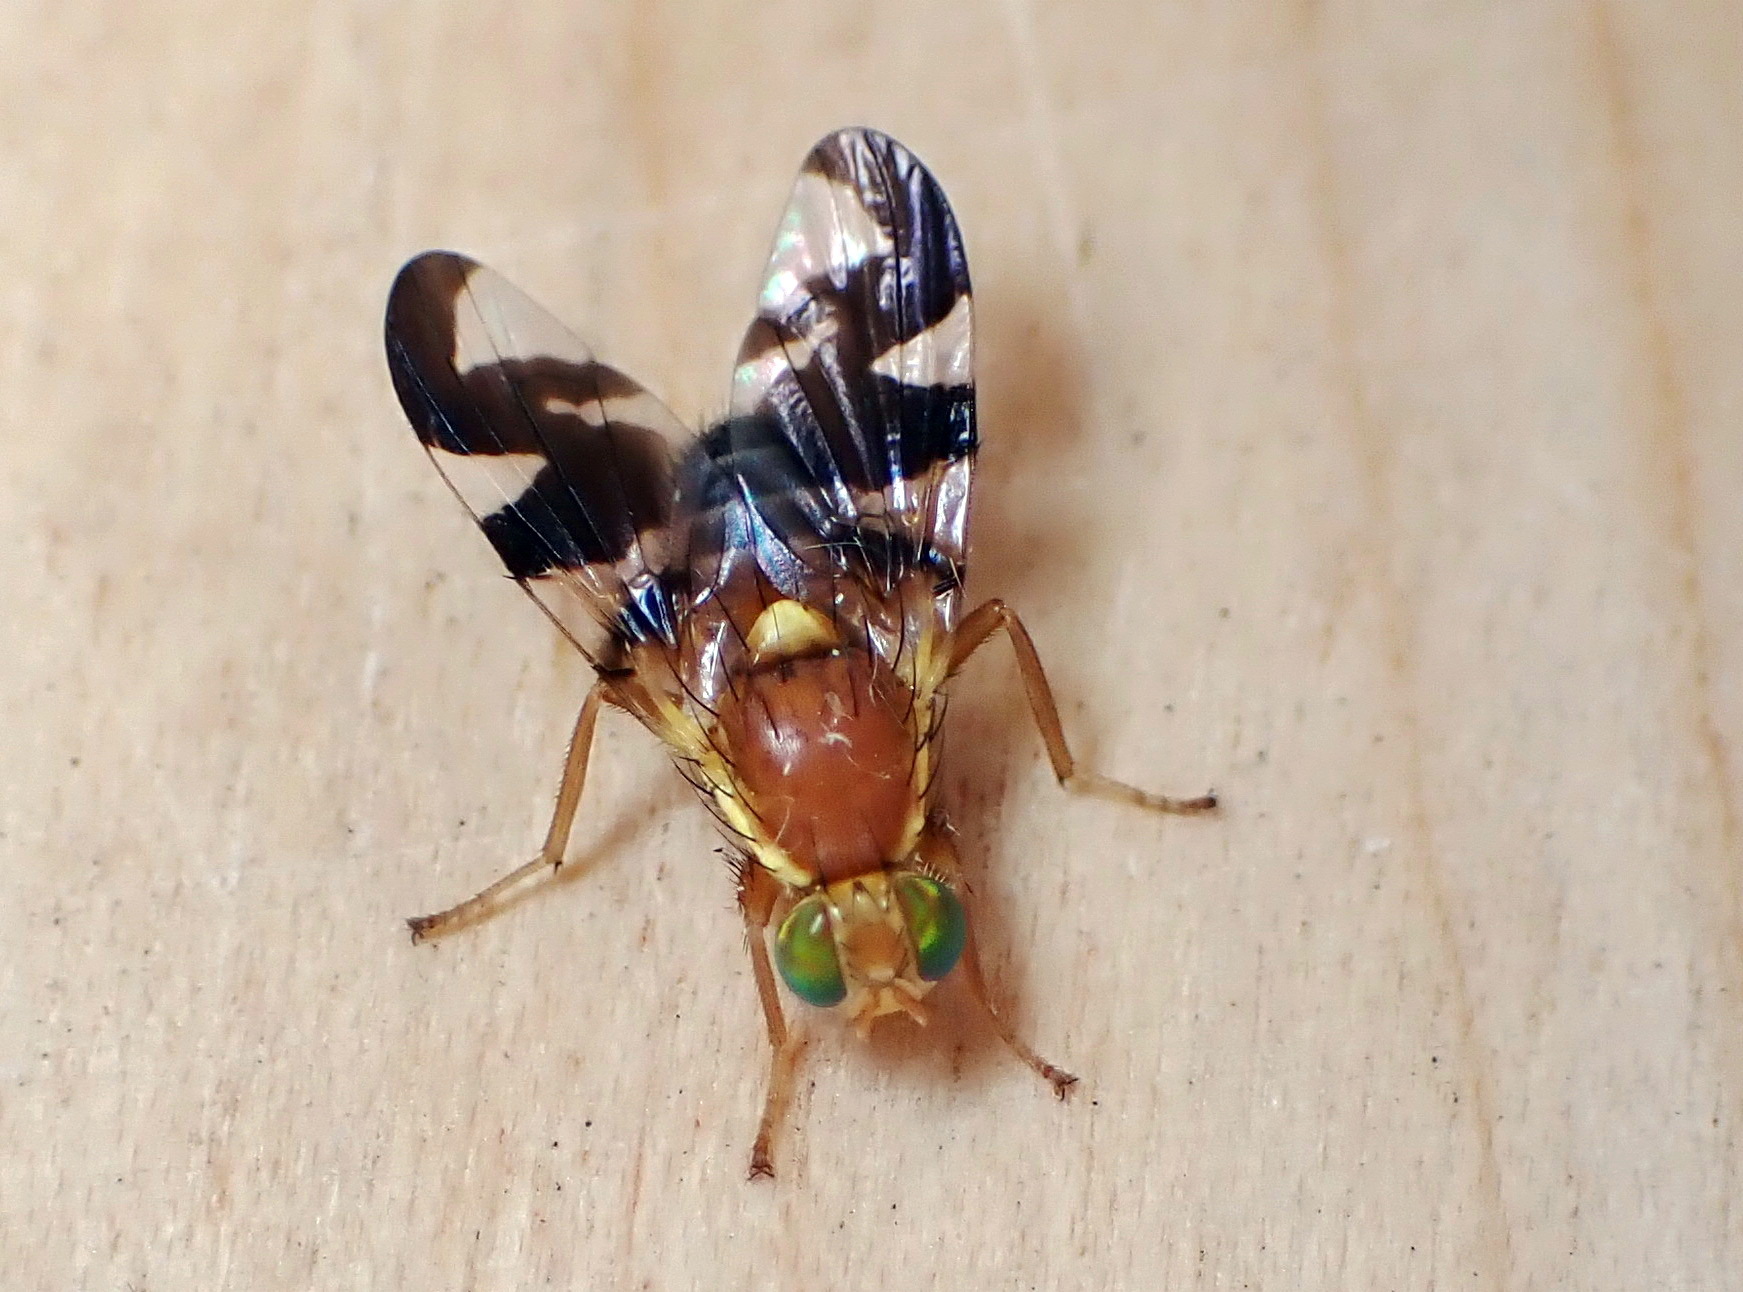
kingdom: Animalia
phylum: Arthropoda
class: Insecta
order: Diptera
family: Tephritidae
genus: Rhagoletis
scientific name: Rhagoletis suavis
